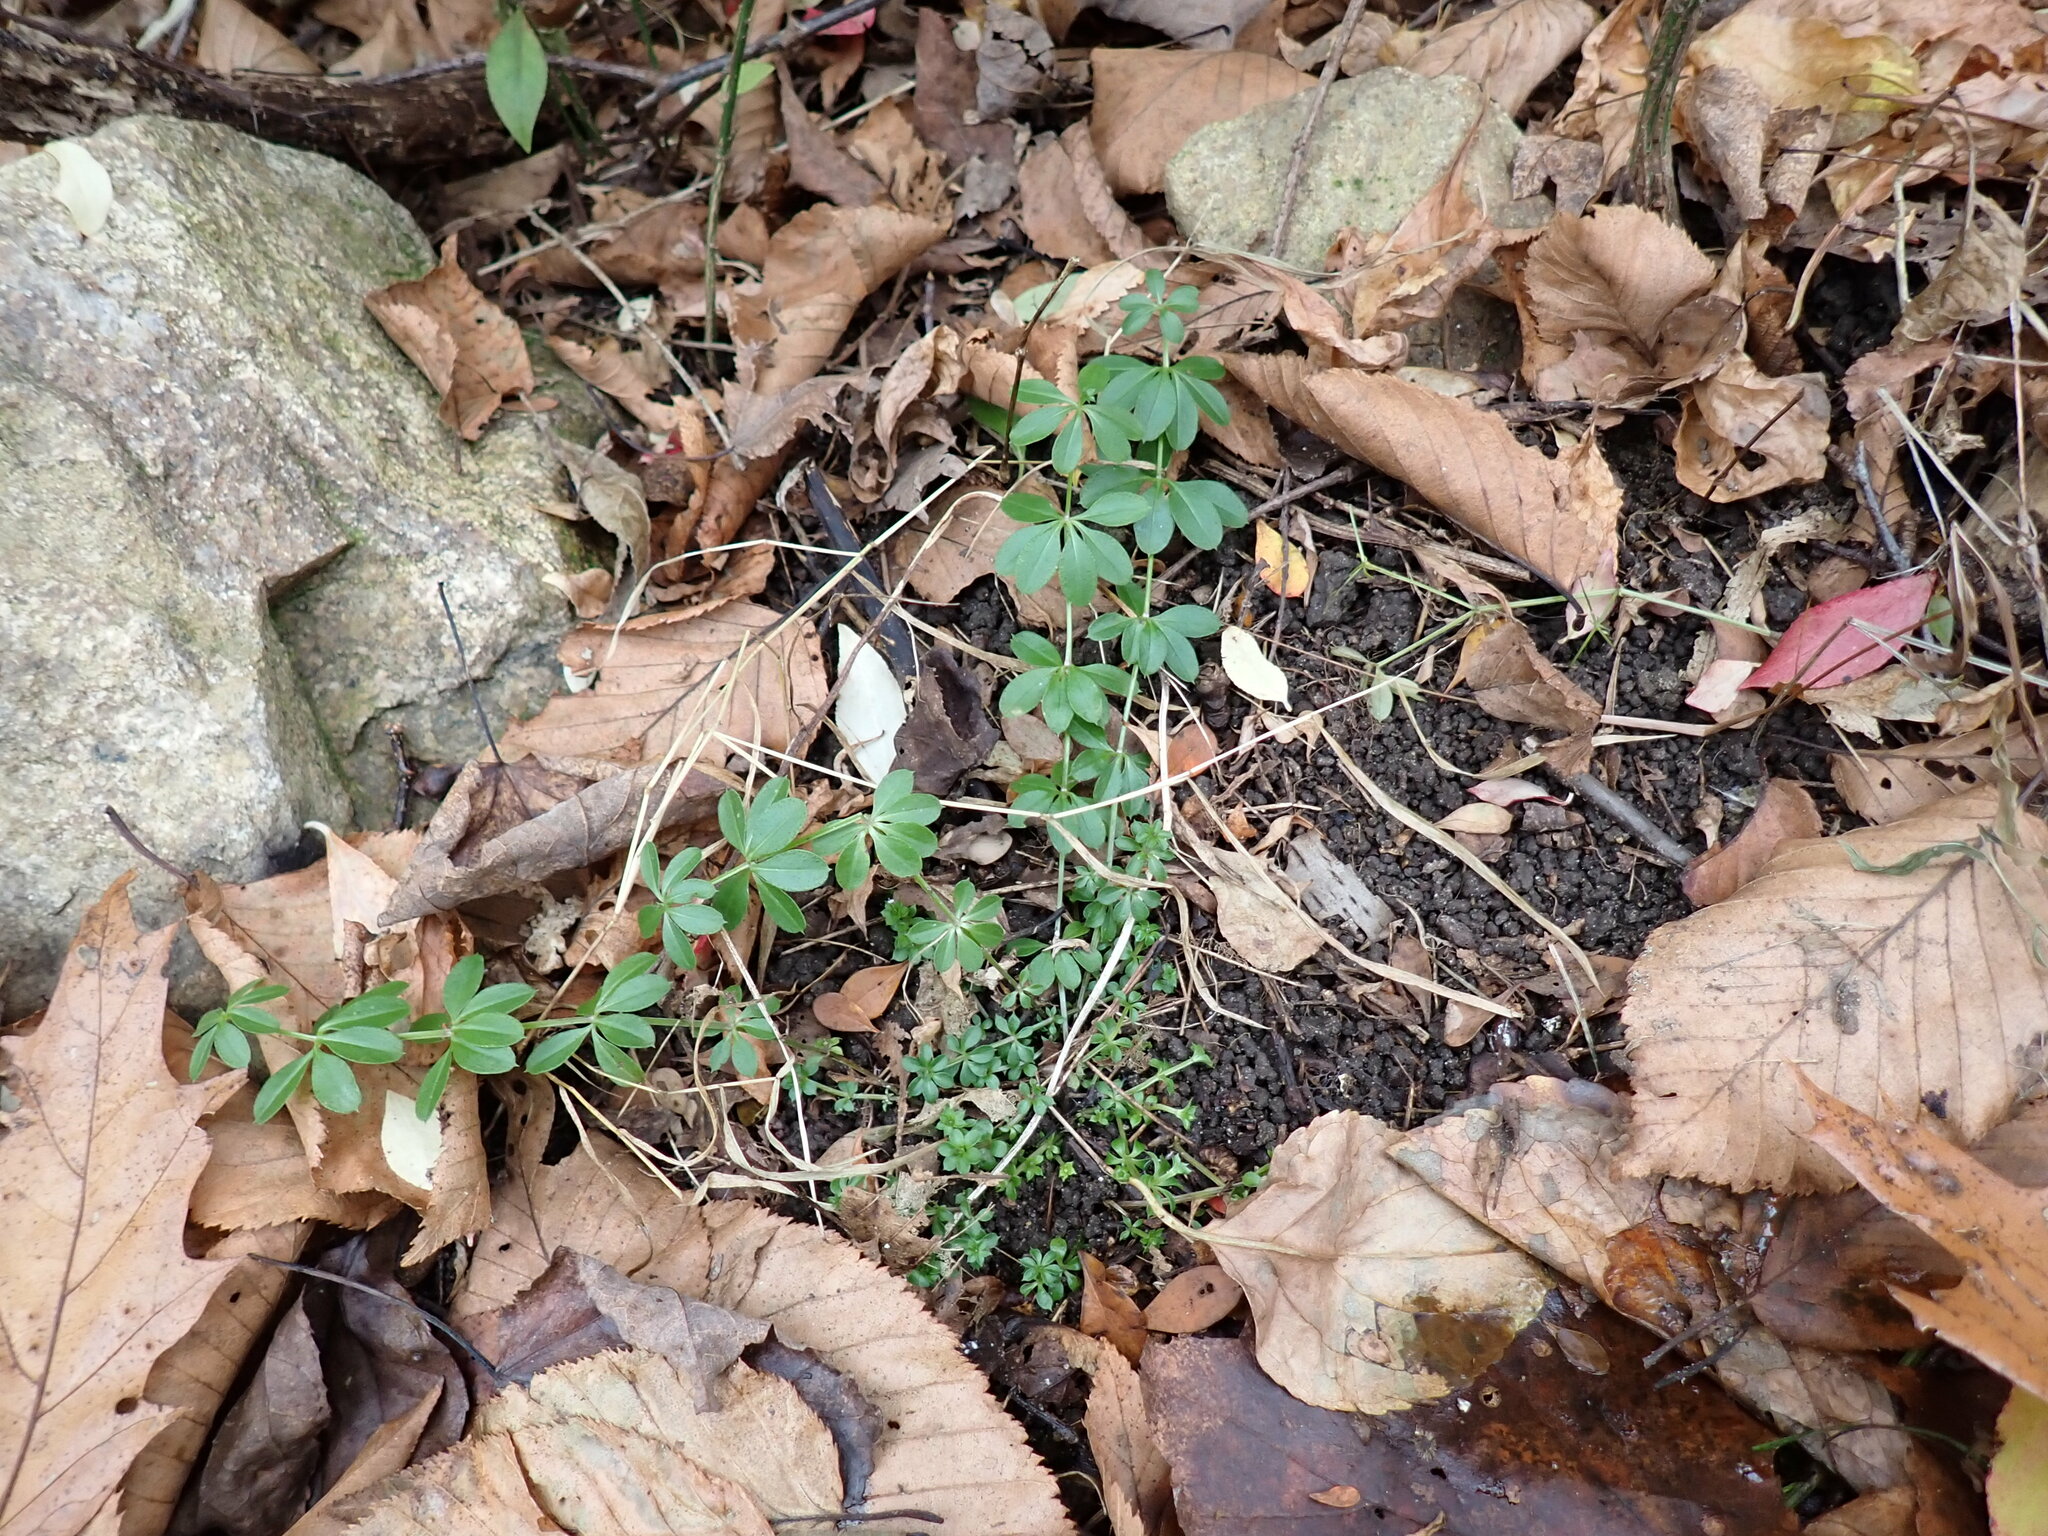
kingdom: Plantae
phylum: Tracheophyta
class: Magnoliopsida
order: Gentianales
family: Rubiaceae
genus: Galium
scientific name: Galium triflorum
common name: Fragrant bedstraw
